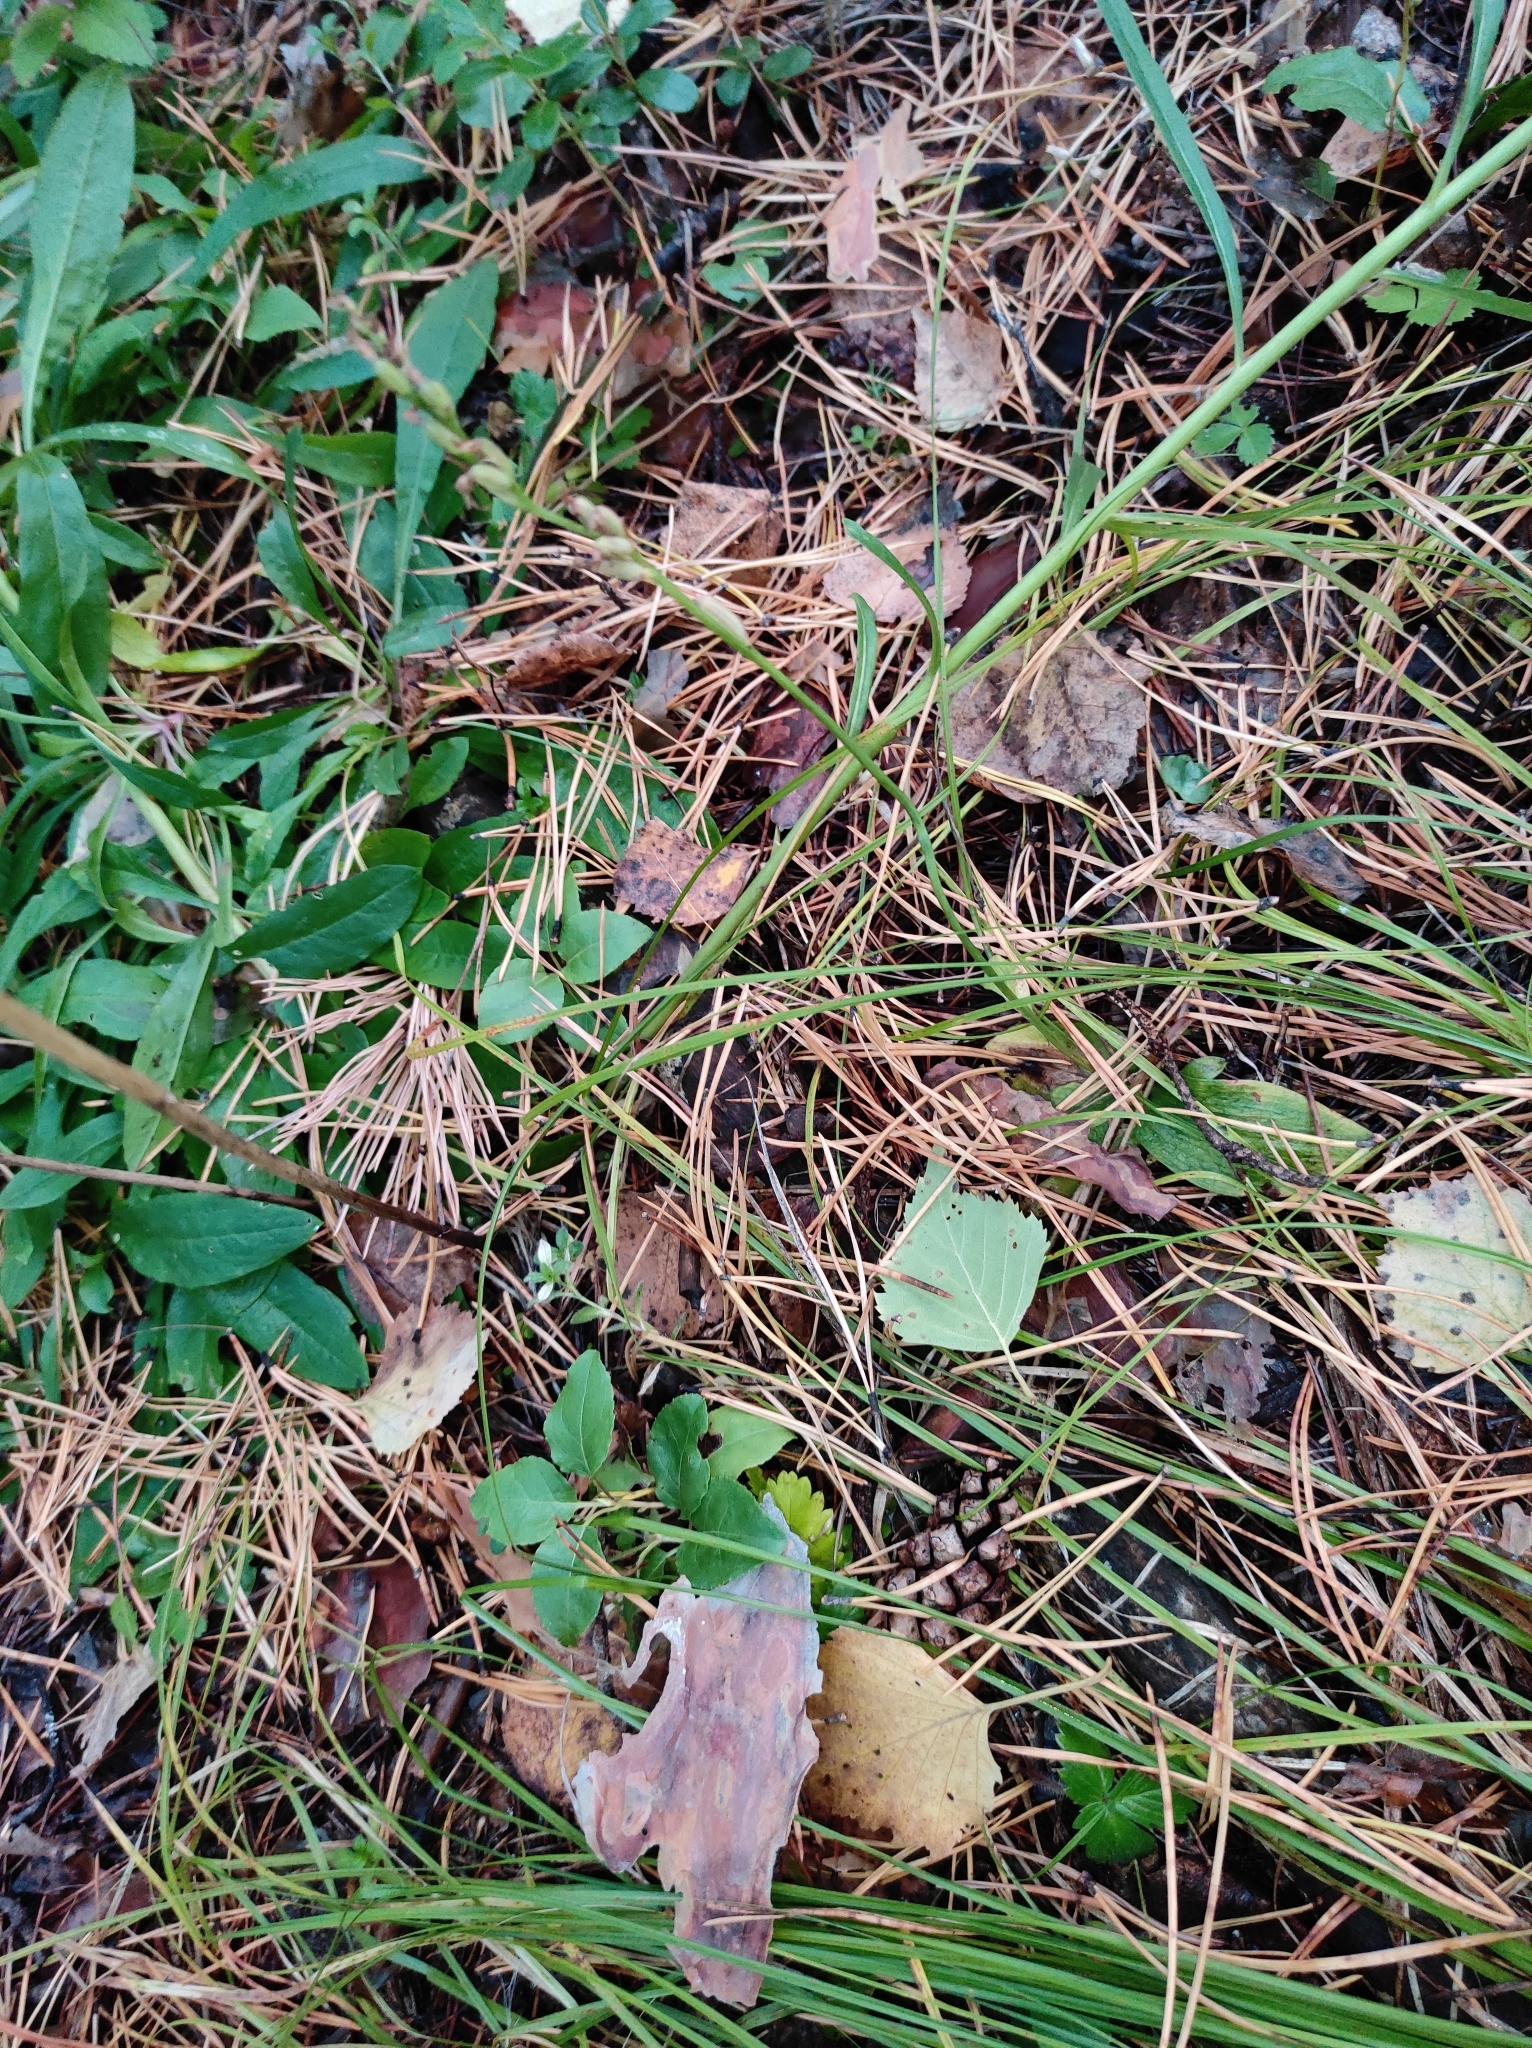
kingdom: Plantae
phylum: Tracheophyta
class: Liliopsida
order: Asparagales
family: Orchidaceae
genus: Hemipilia
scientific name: Hemipilia cucullata
